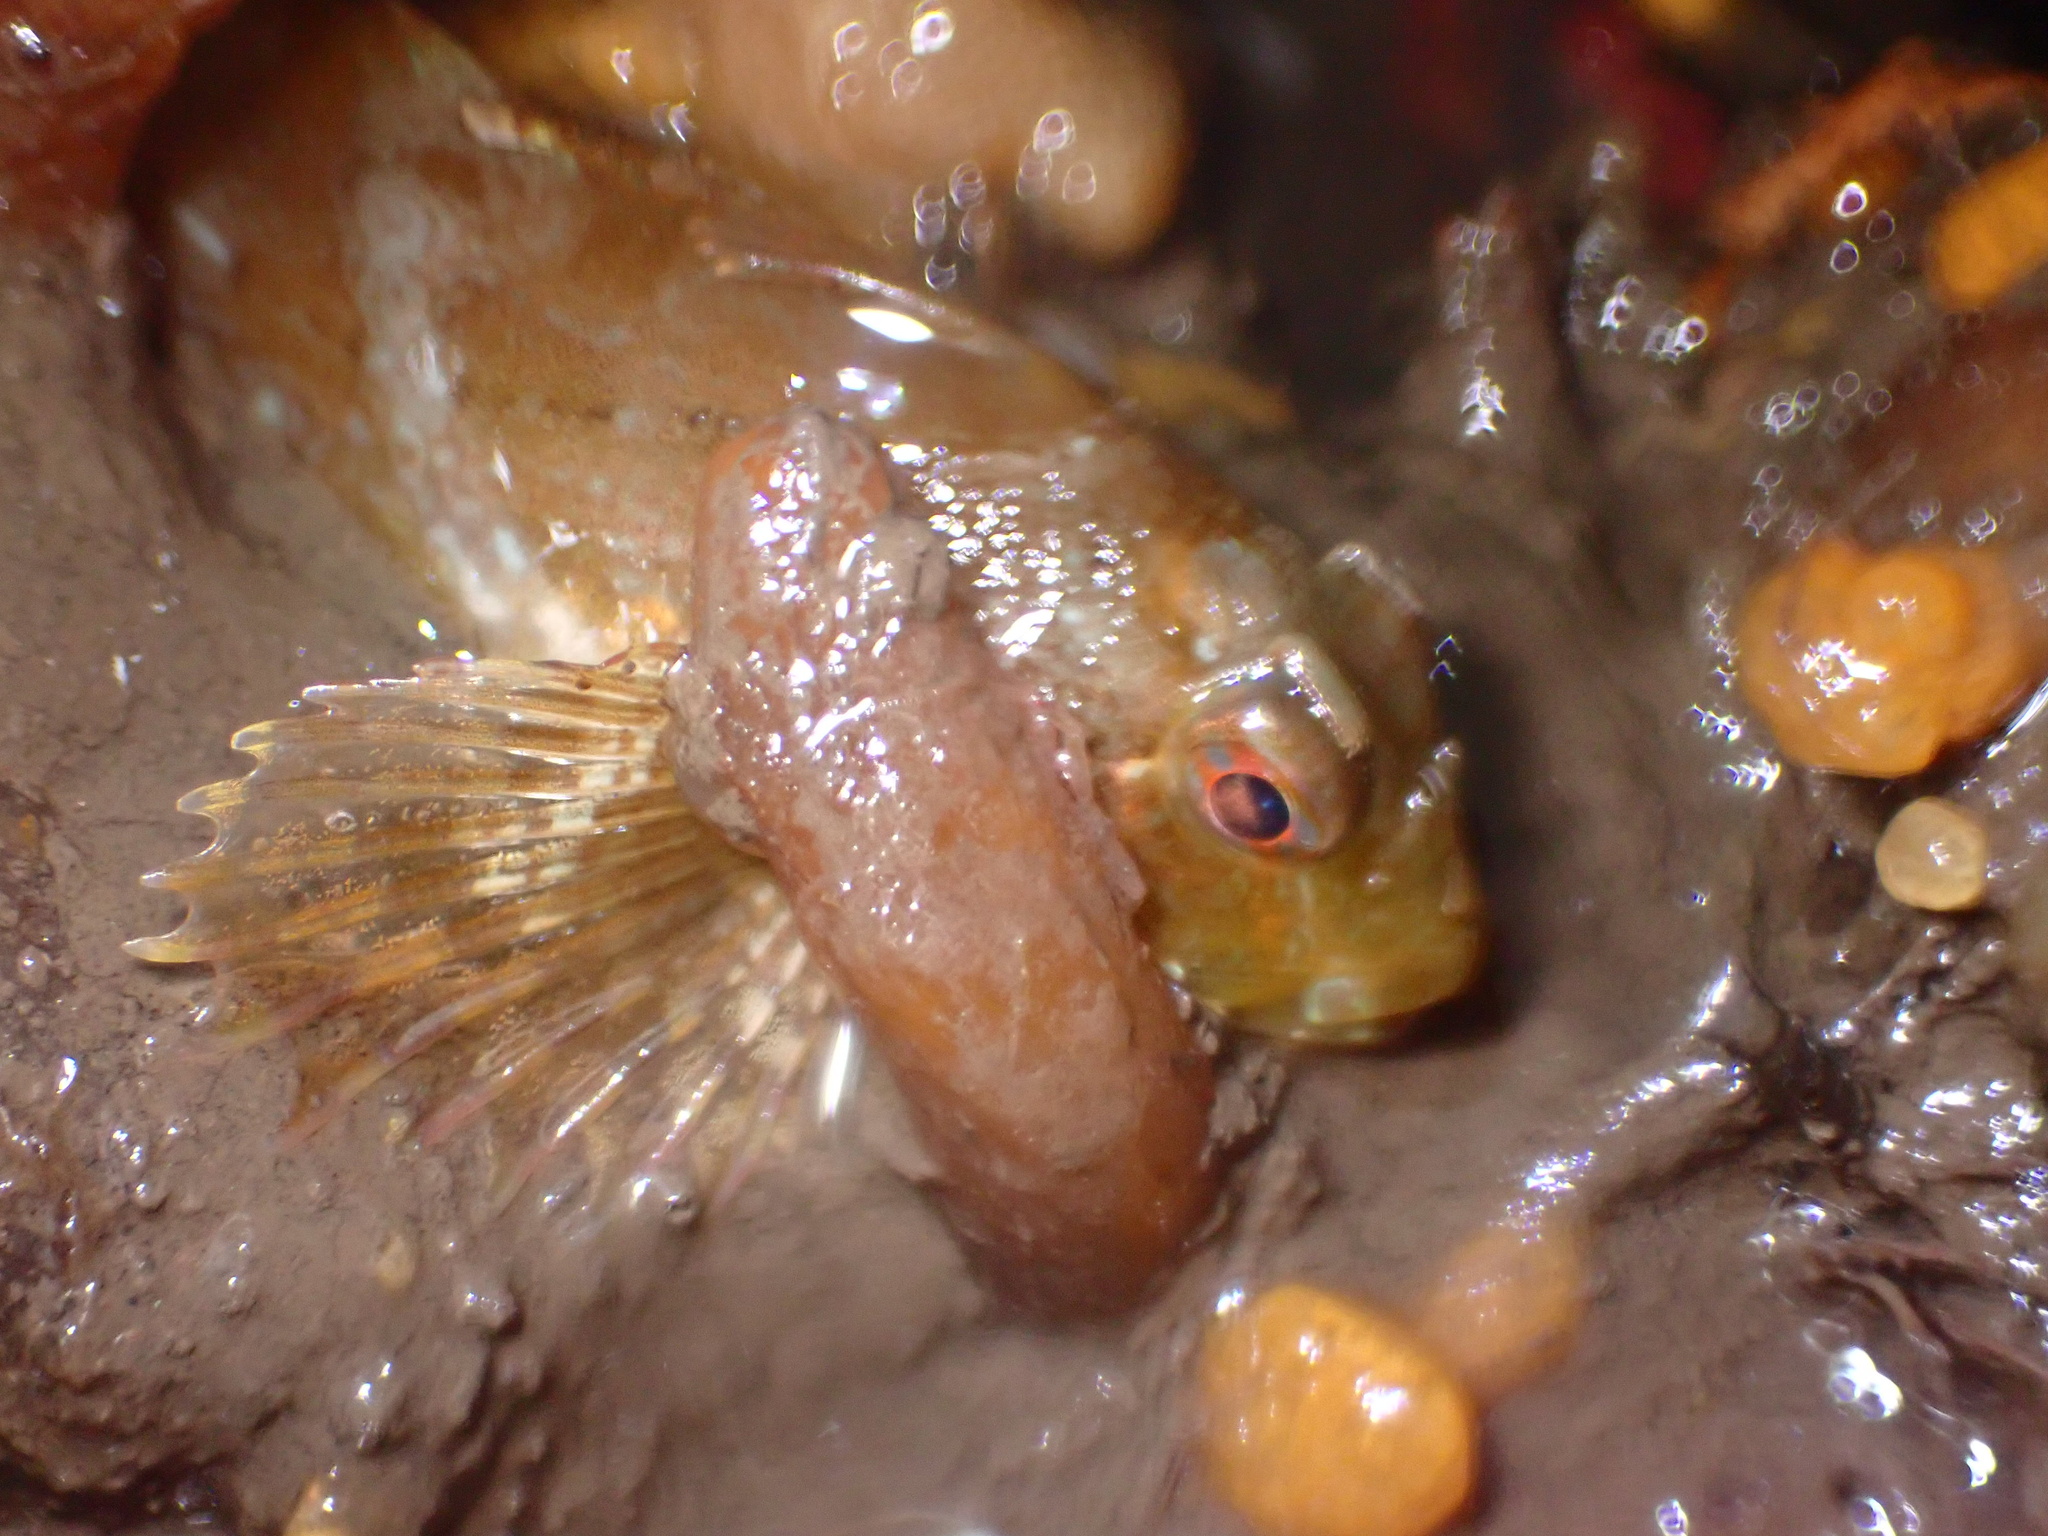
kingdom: Animalia
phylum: Chordata
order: Scorpaeniformes
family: Cottidae
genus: Scorpaenichthys
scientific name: Scorpaenichthys marmoratus
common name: Cabezon
